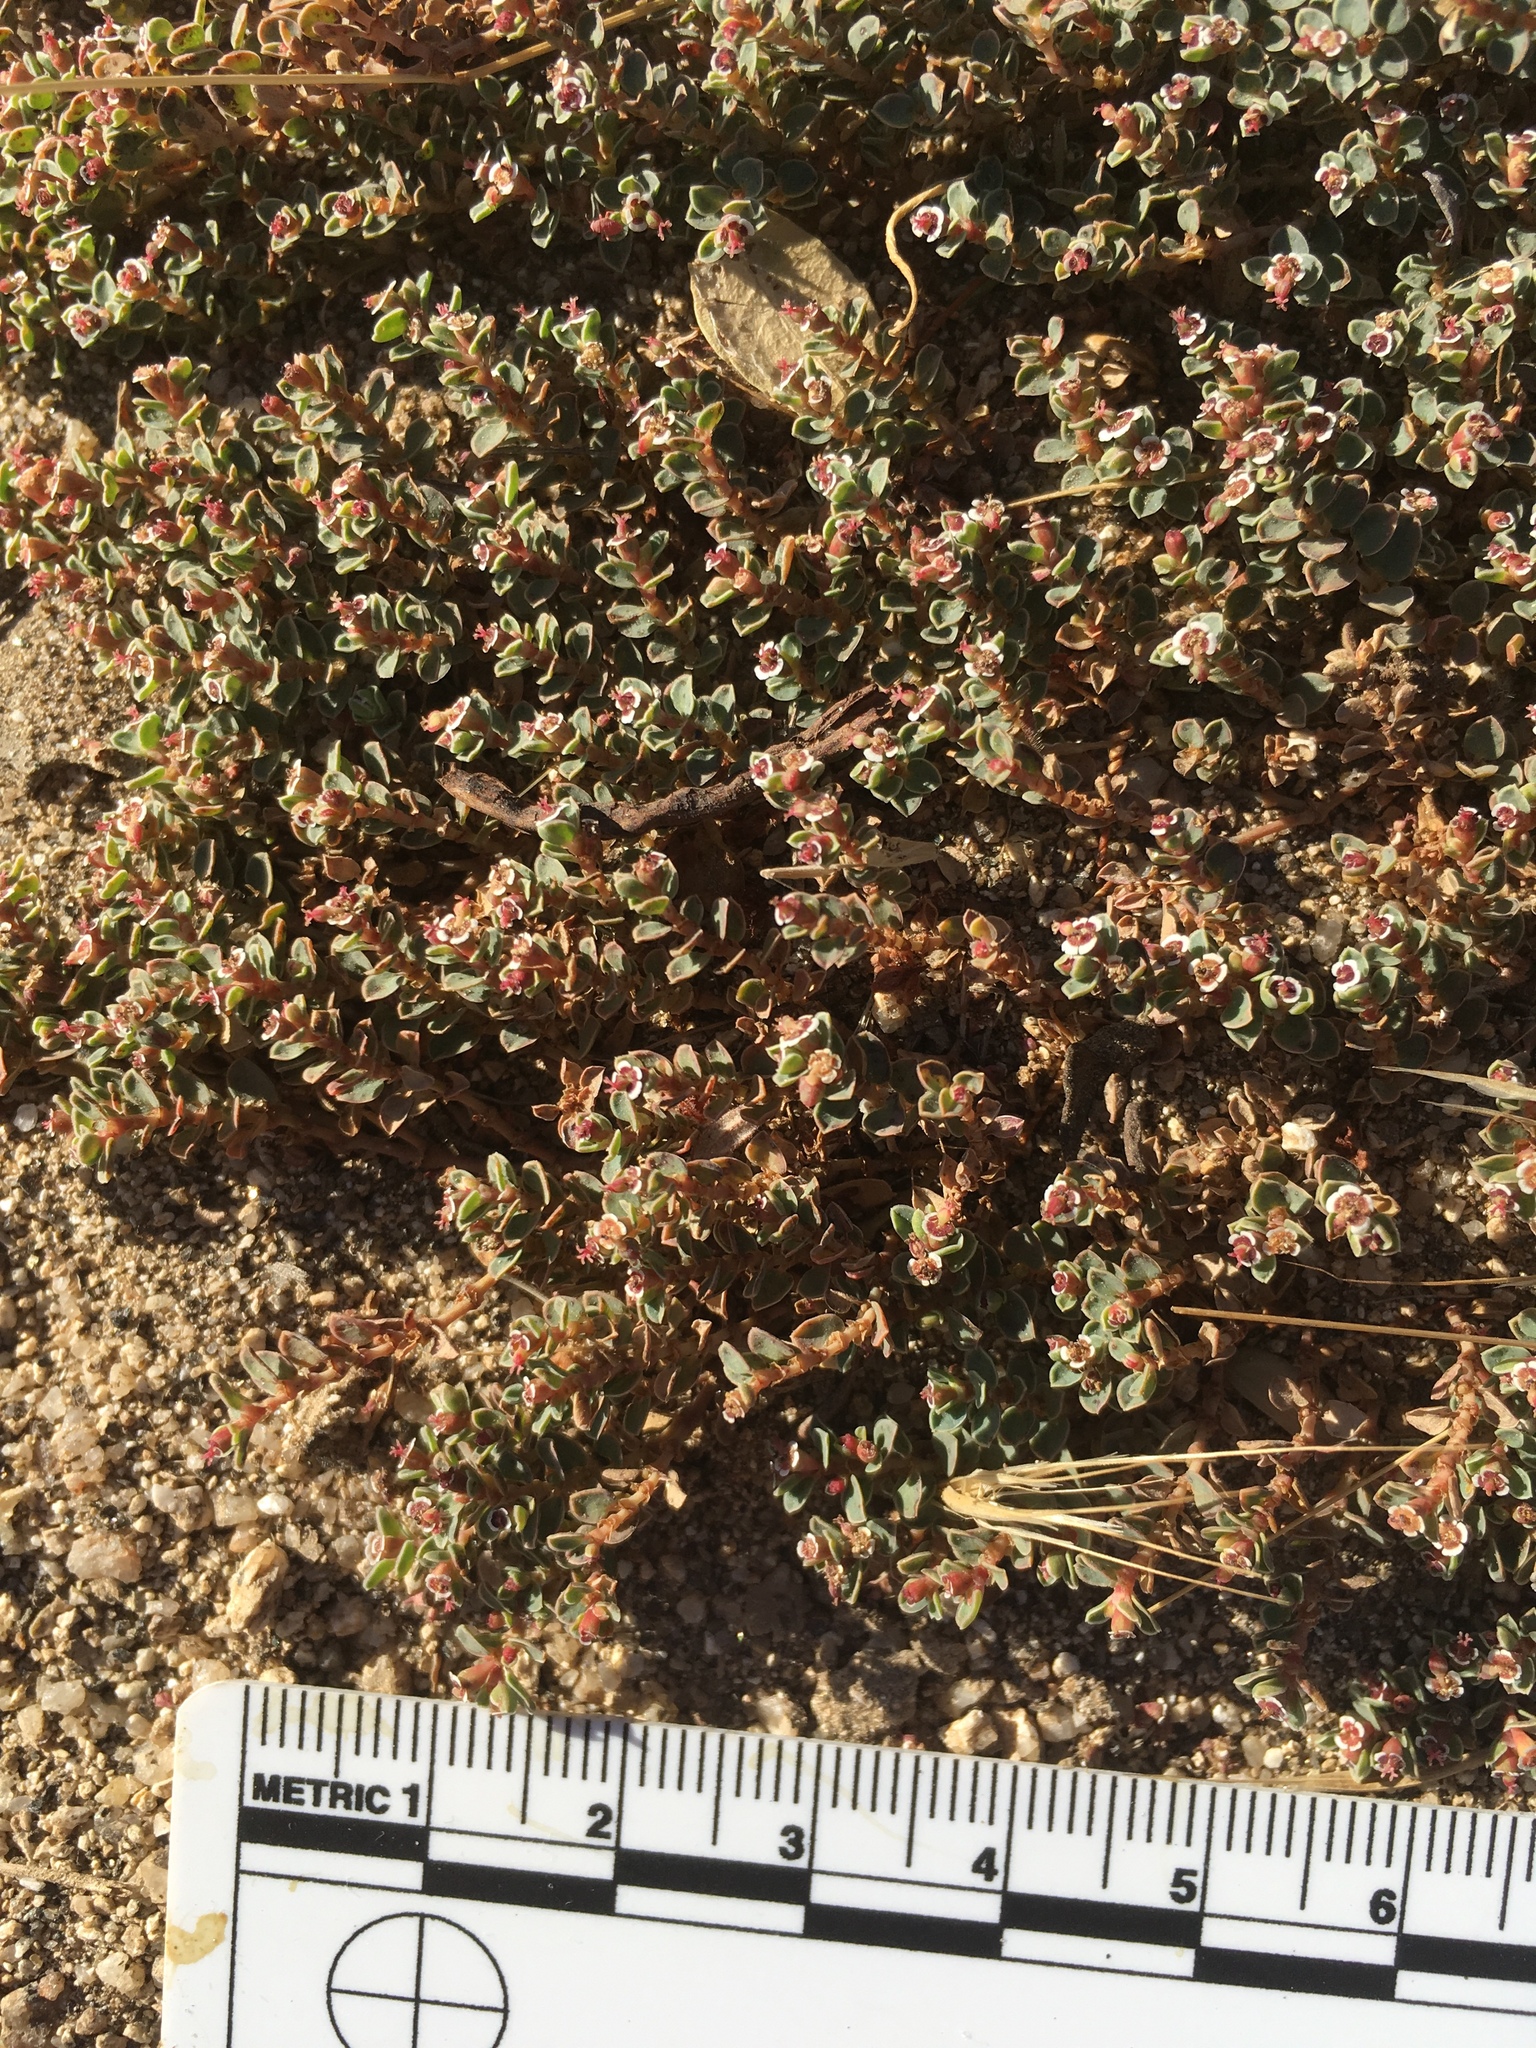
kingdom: Plantae
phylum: Tracheophyta
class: Magnoliopsida
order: Malpighiales
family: Euphorbiaceae
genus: Euphorbia
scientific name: Euphorbia albomarginata
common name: Whitemargin sandmat
